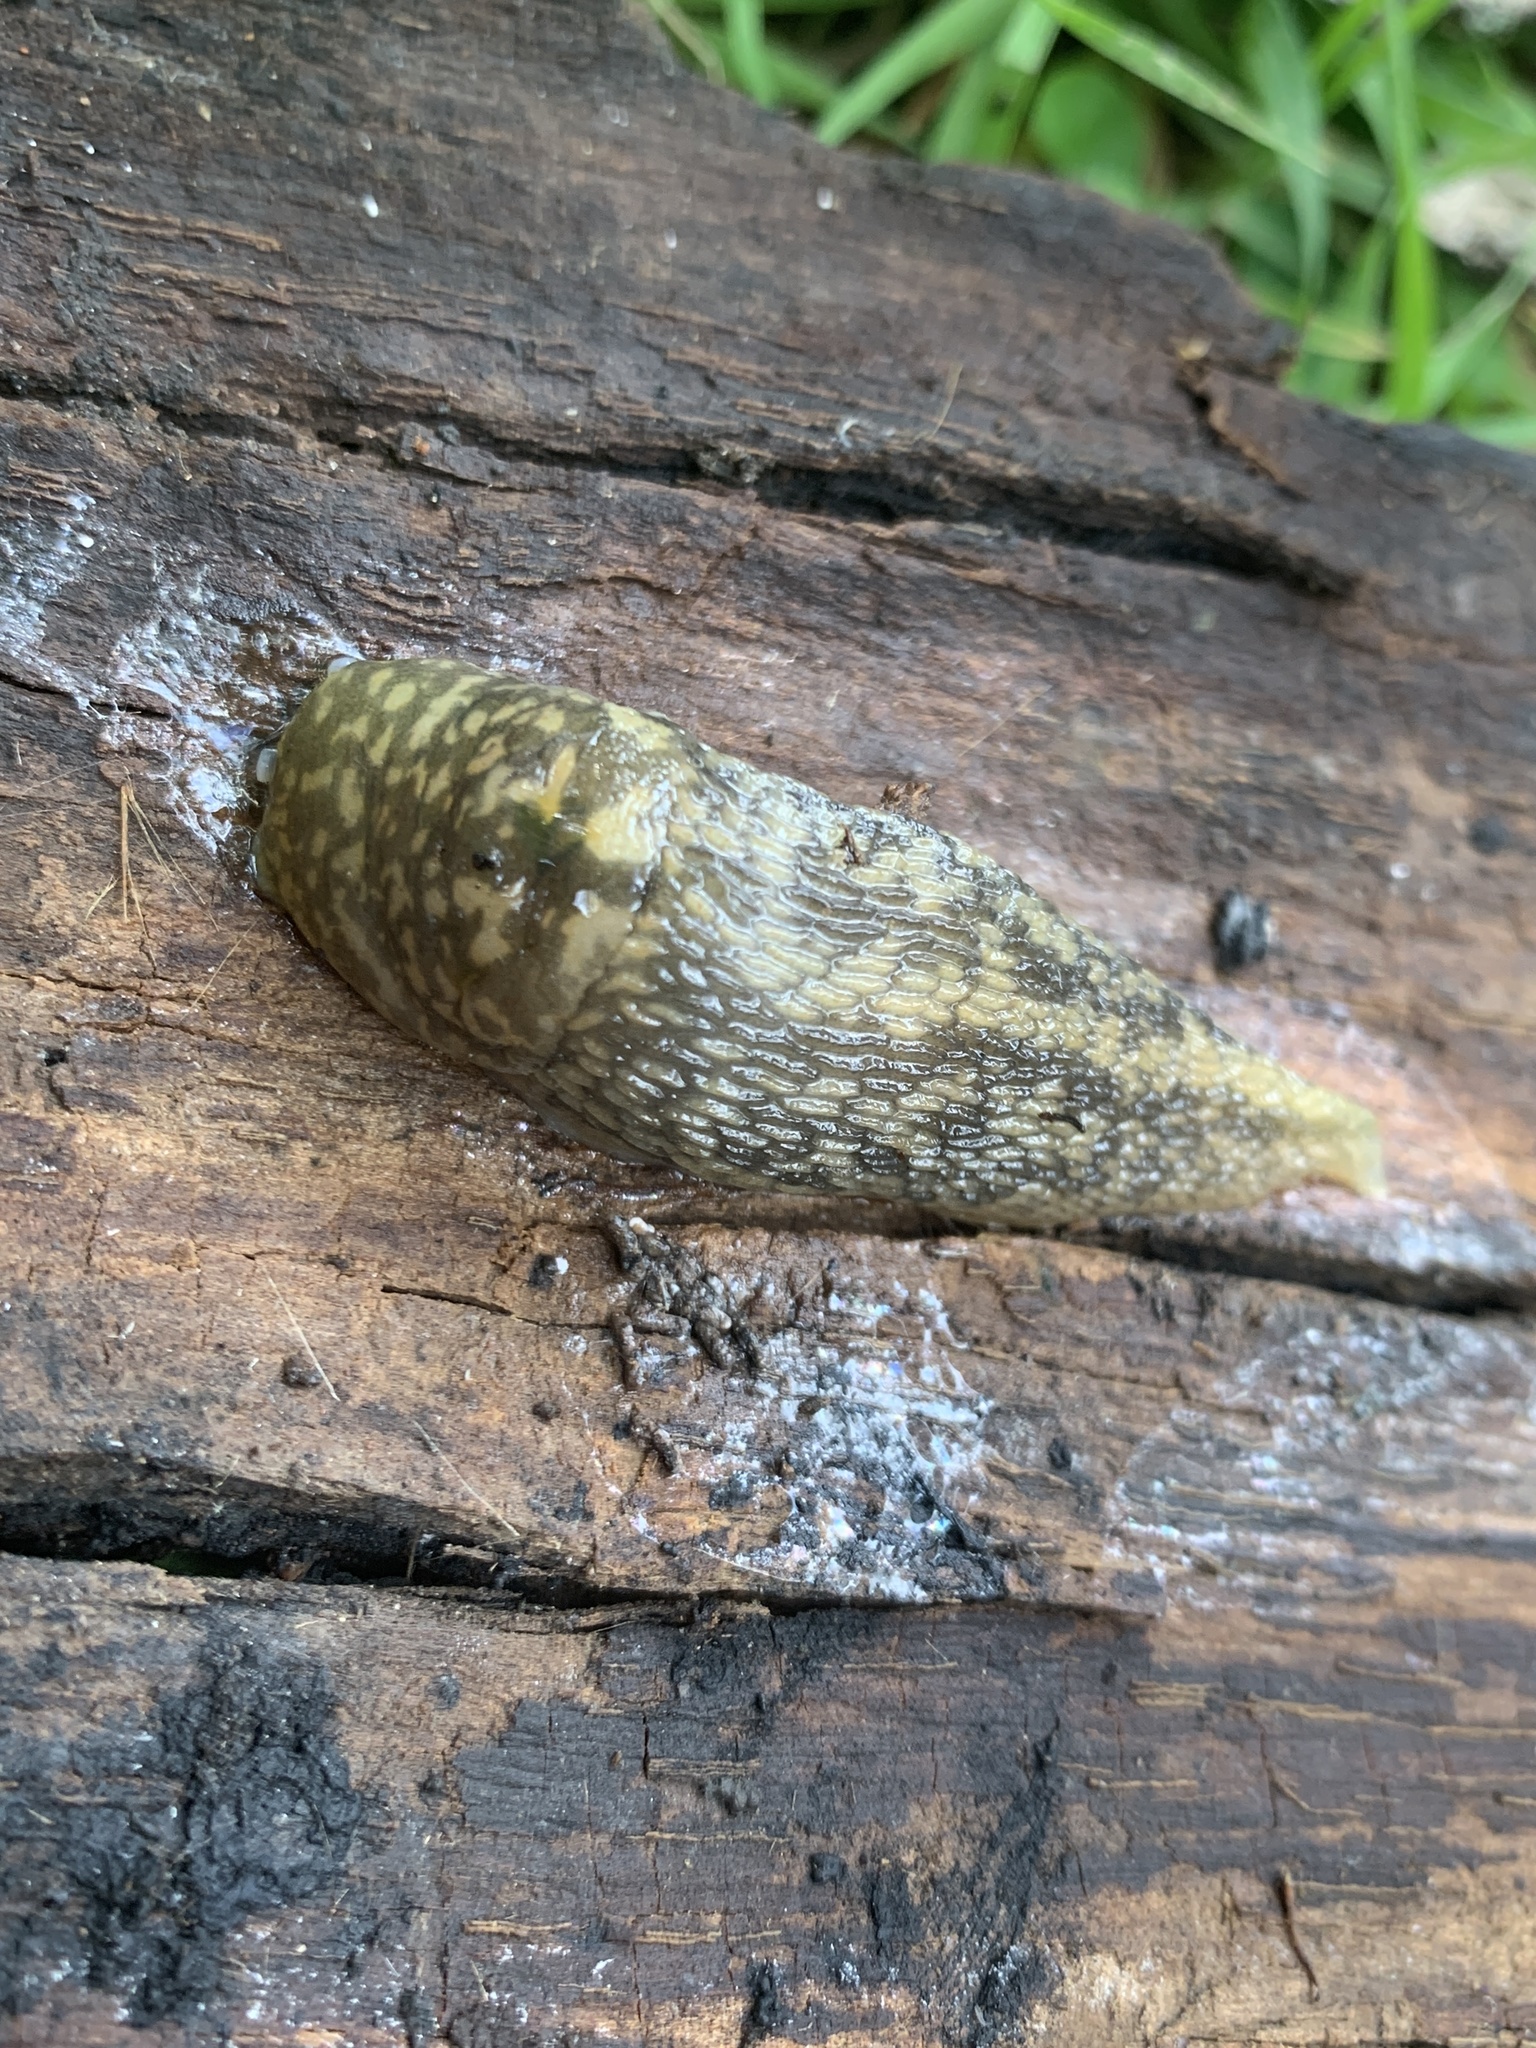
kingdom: Animalia
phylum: Mollusca
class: Gastropoda
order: Stylommatophora
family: Limacidae
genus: Limacus
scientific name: Limacus flavus
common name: Yellow gardenslug
